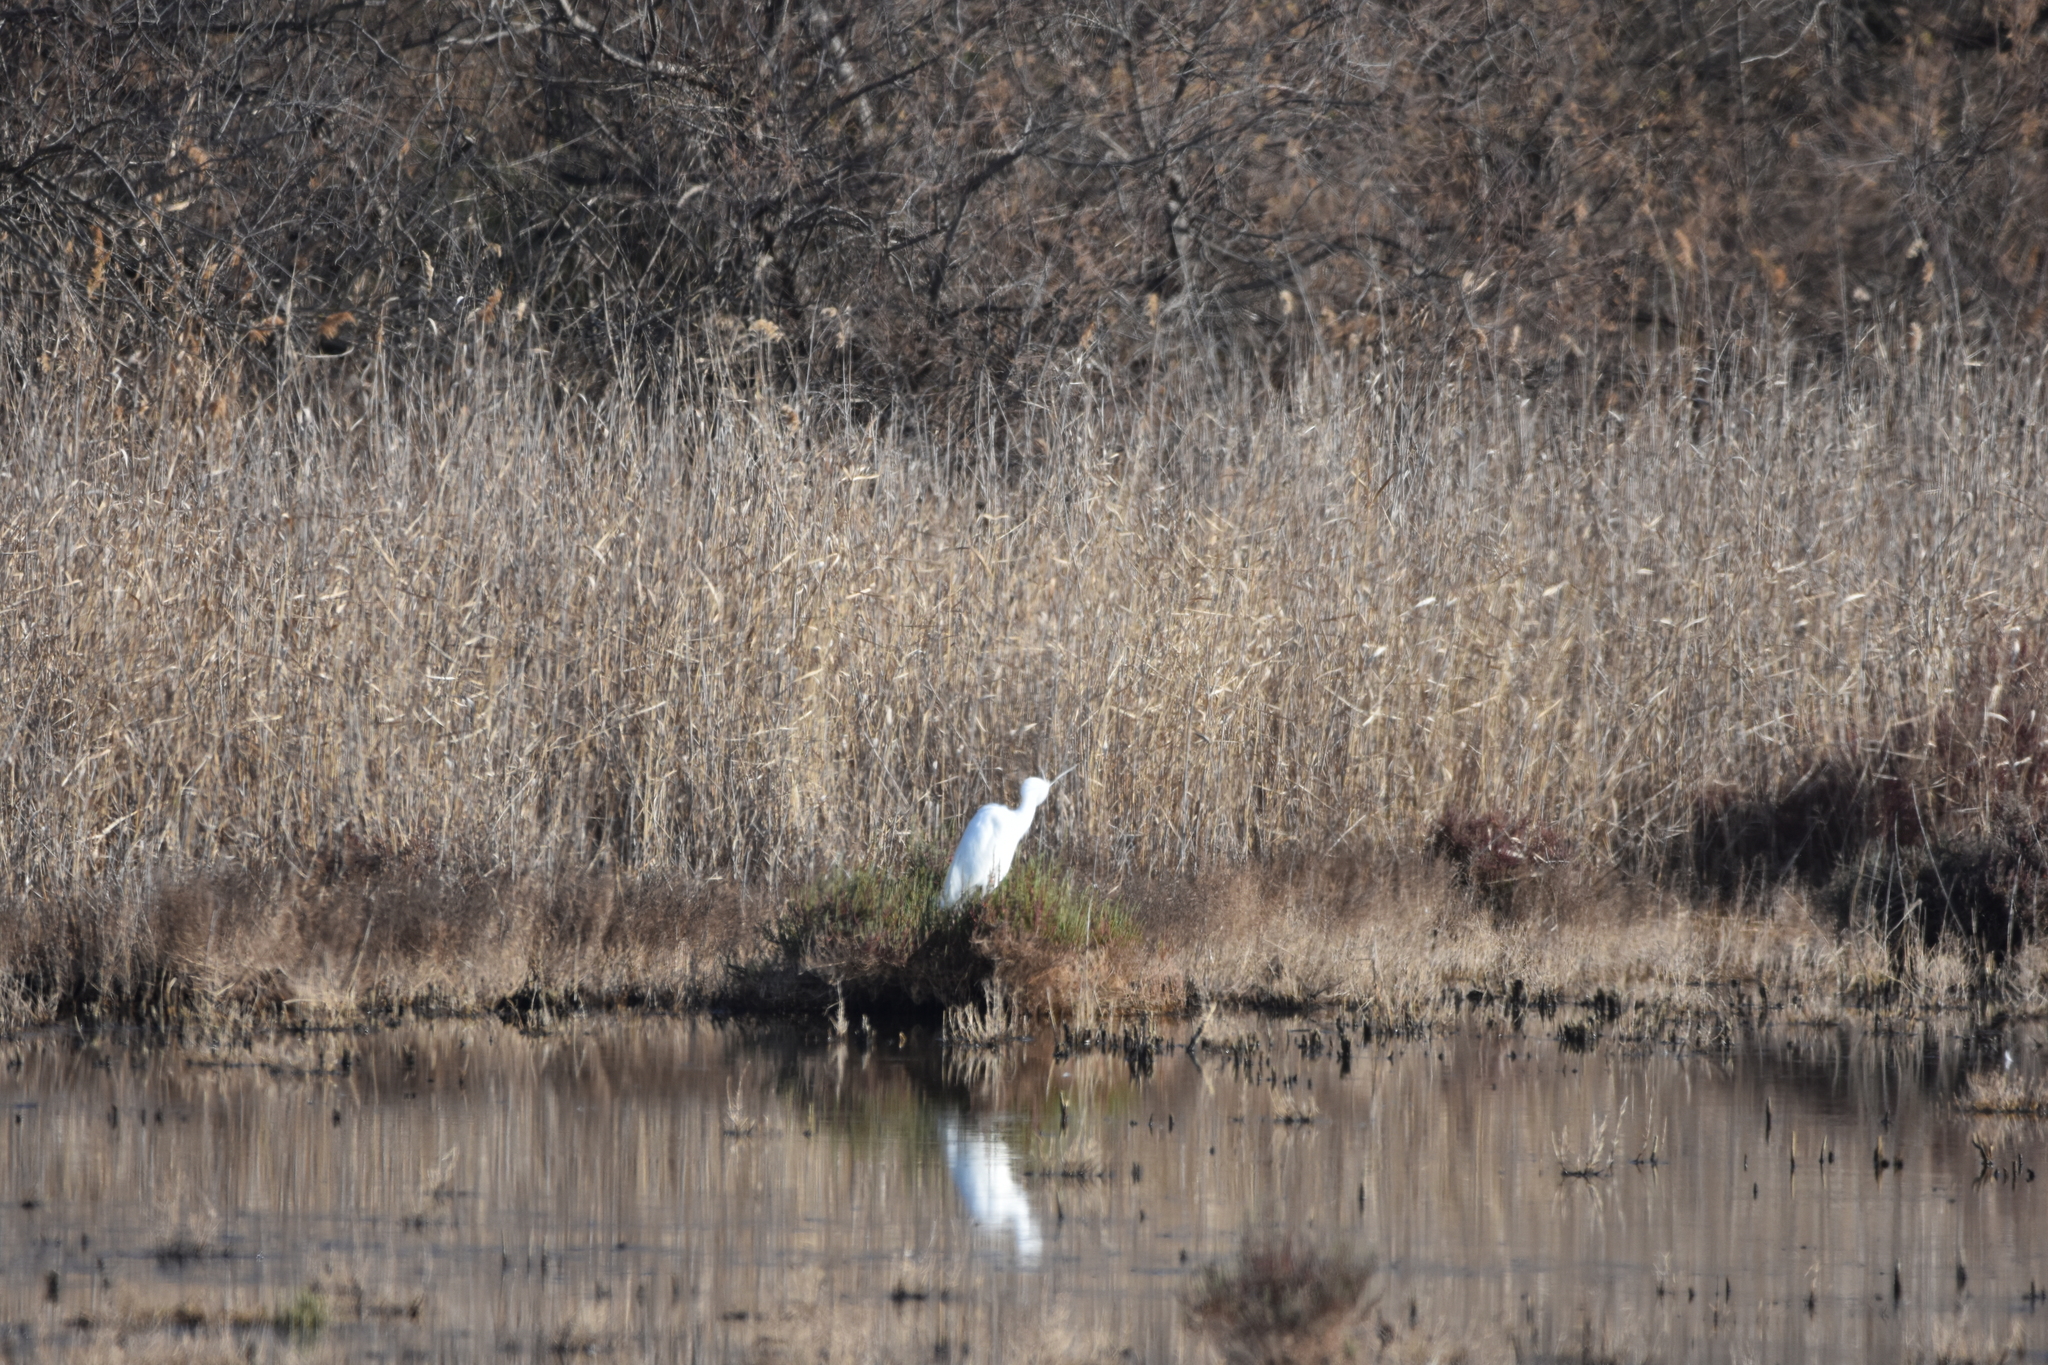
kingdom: Animalia
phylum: Chordata
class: Aves
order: Pelecaniformes
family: Ardeidae
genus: Egretta
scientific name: Egretta garzetta
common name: Little egret
